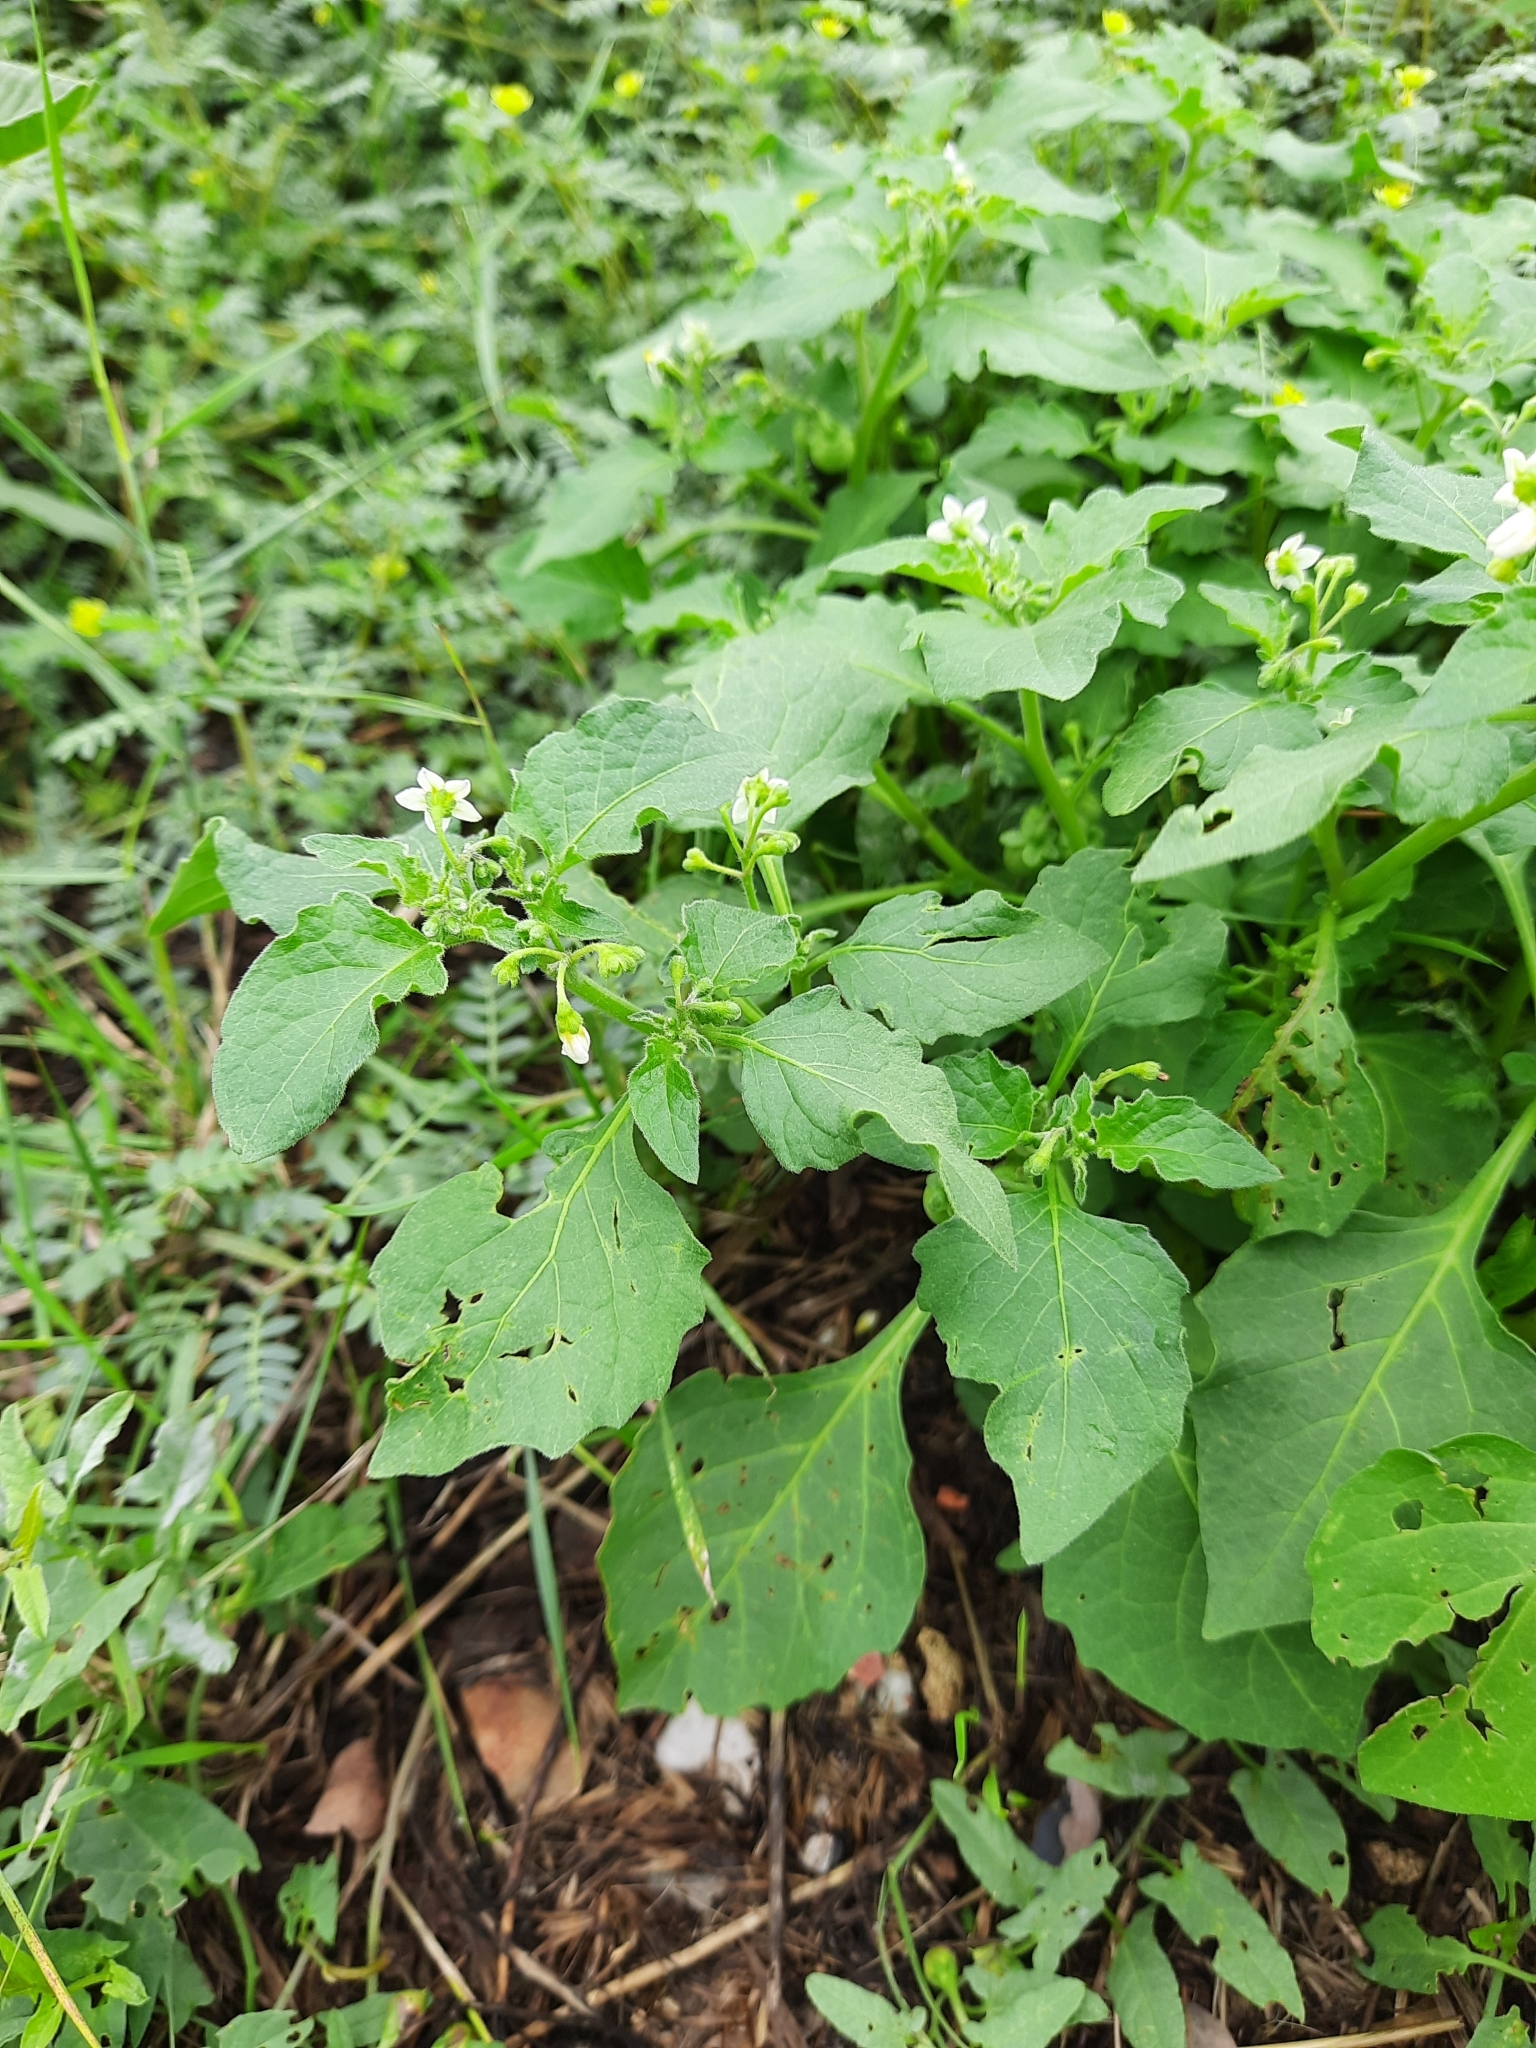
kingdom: Plantae
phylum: Tracheophyta
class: Magnoliopsida
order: Solanales
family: Solanaceae
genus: Solanum
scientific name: Solanum nigrum
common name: Black nightshade
